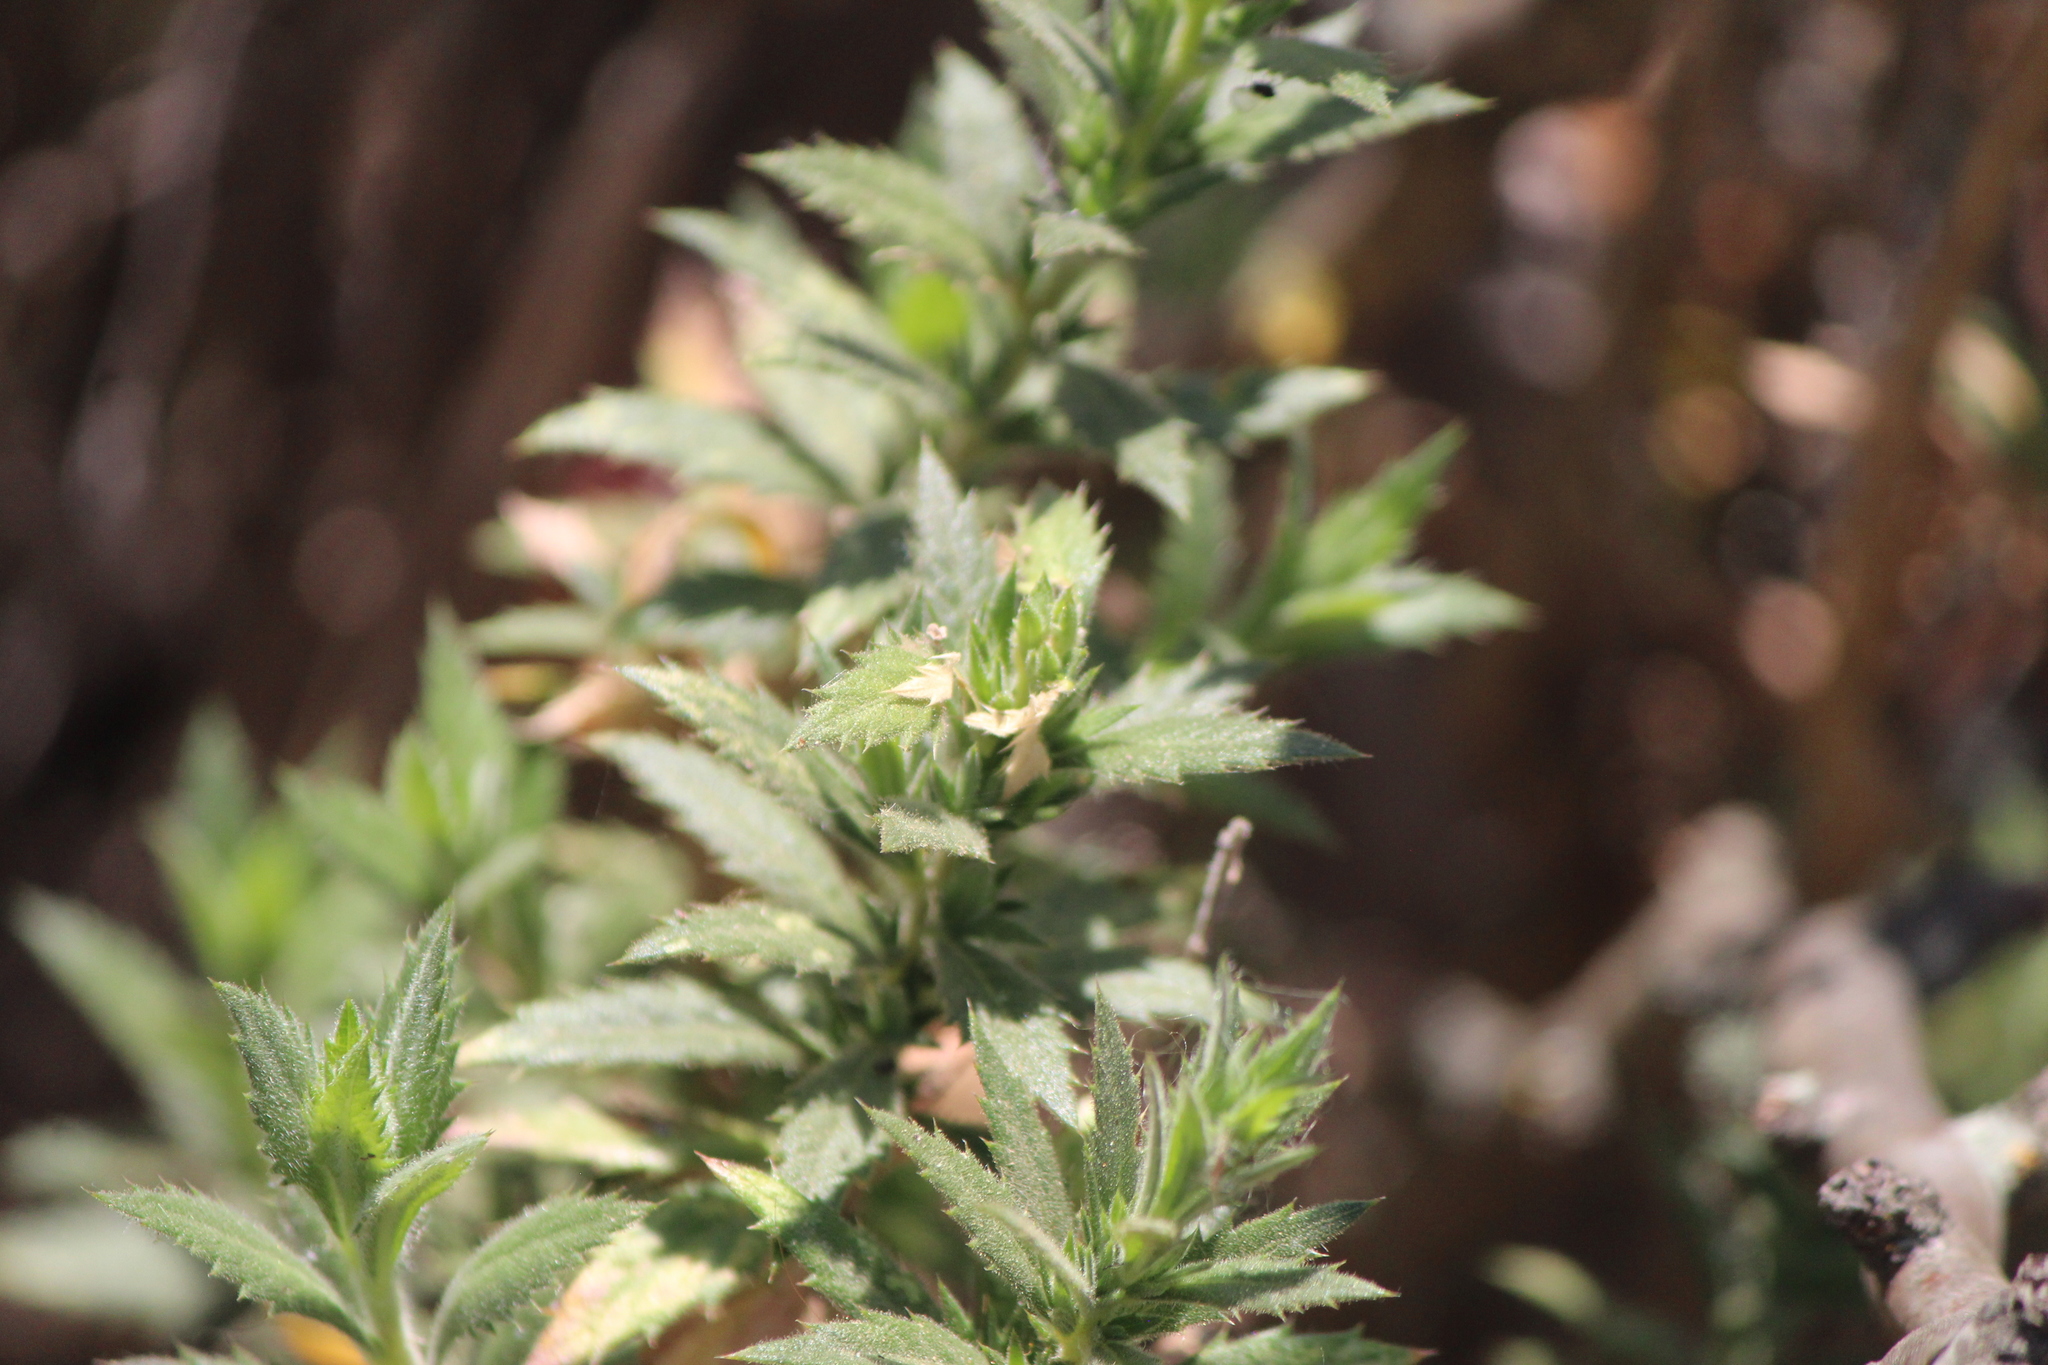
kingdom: Plantae
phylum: Tracheophyta
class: Magnoliopsida
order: Ericales
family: Polemoniaceae
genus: Loeselia
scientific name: Loeselia mexicana
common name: Mexican false calico
